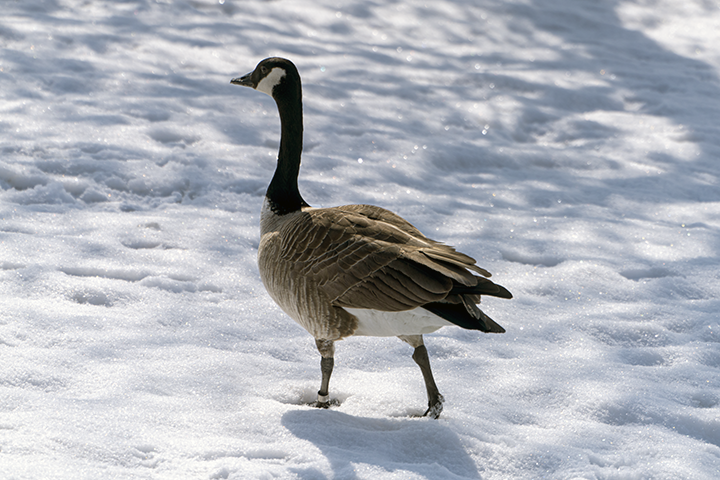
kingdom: Animalia
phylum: Chordata
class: Aves
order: Anseriformes
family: Anatidae
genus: Branta
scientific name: Branta canadensis
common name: Canada goose
